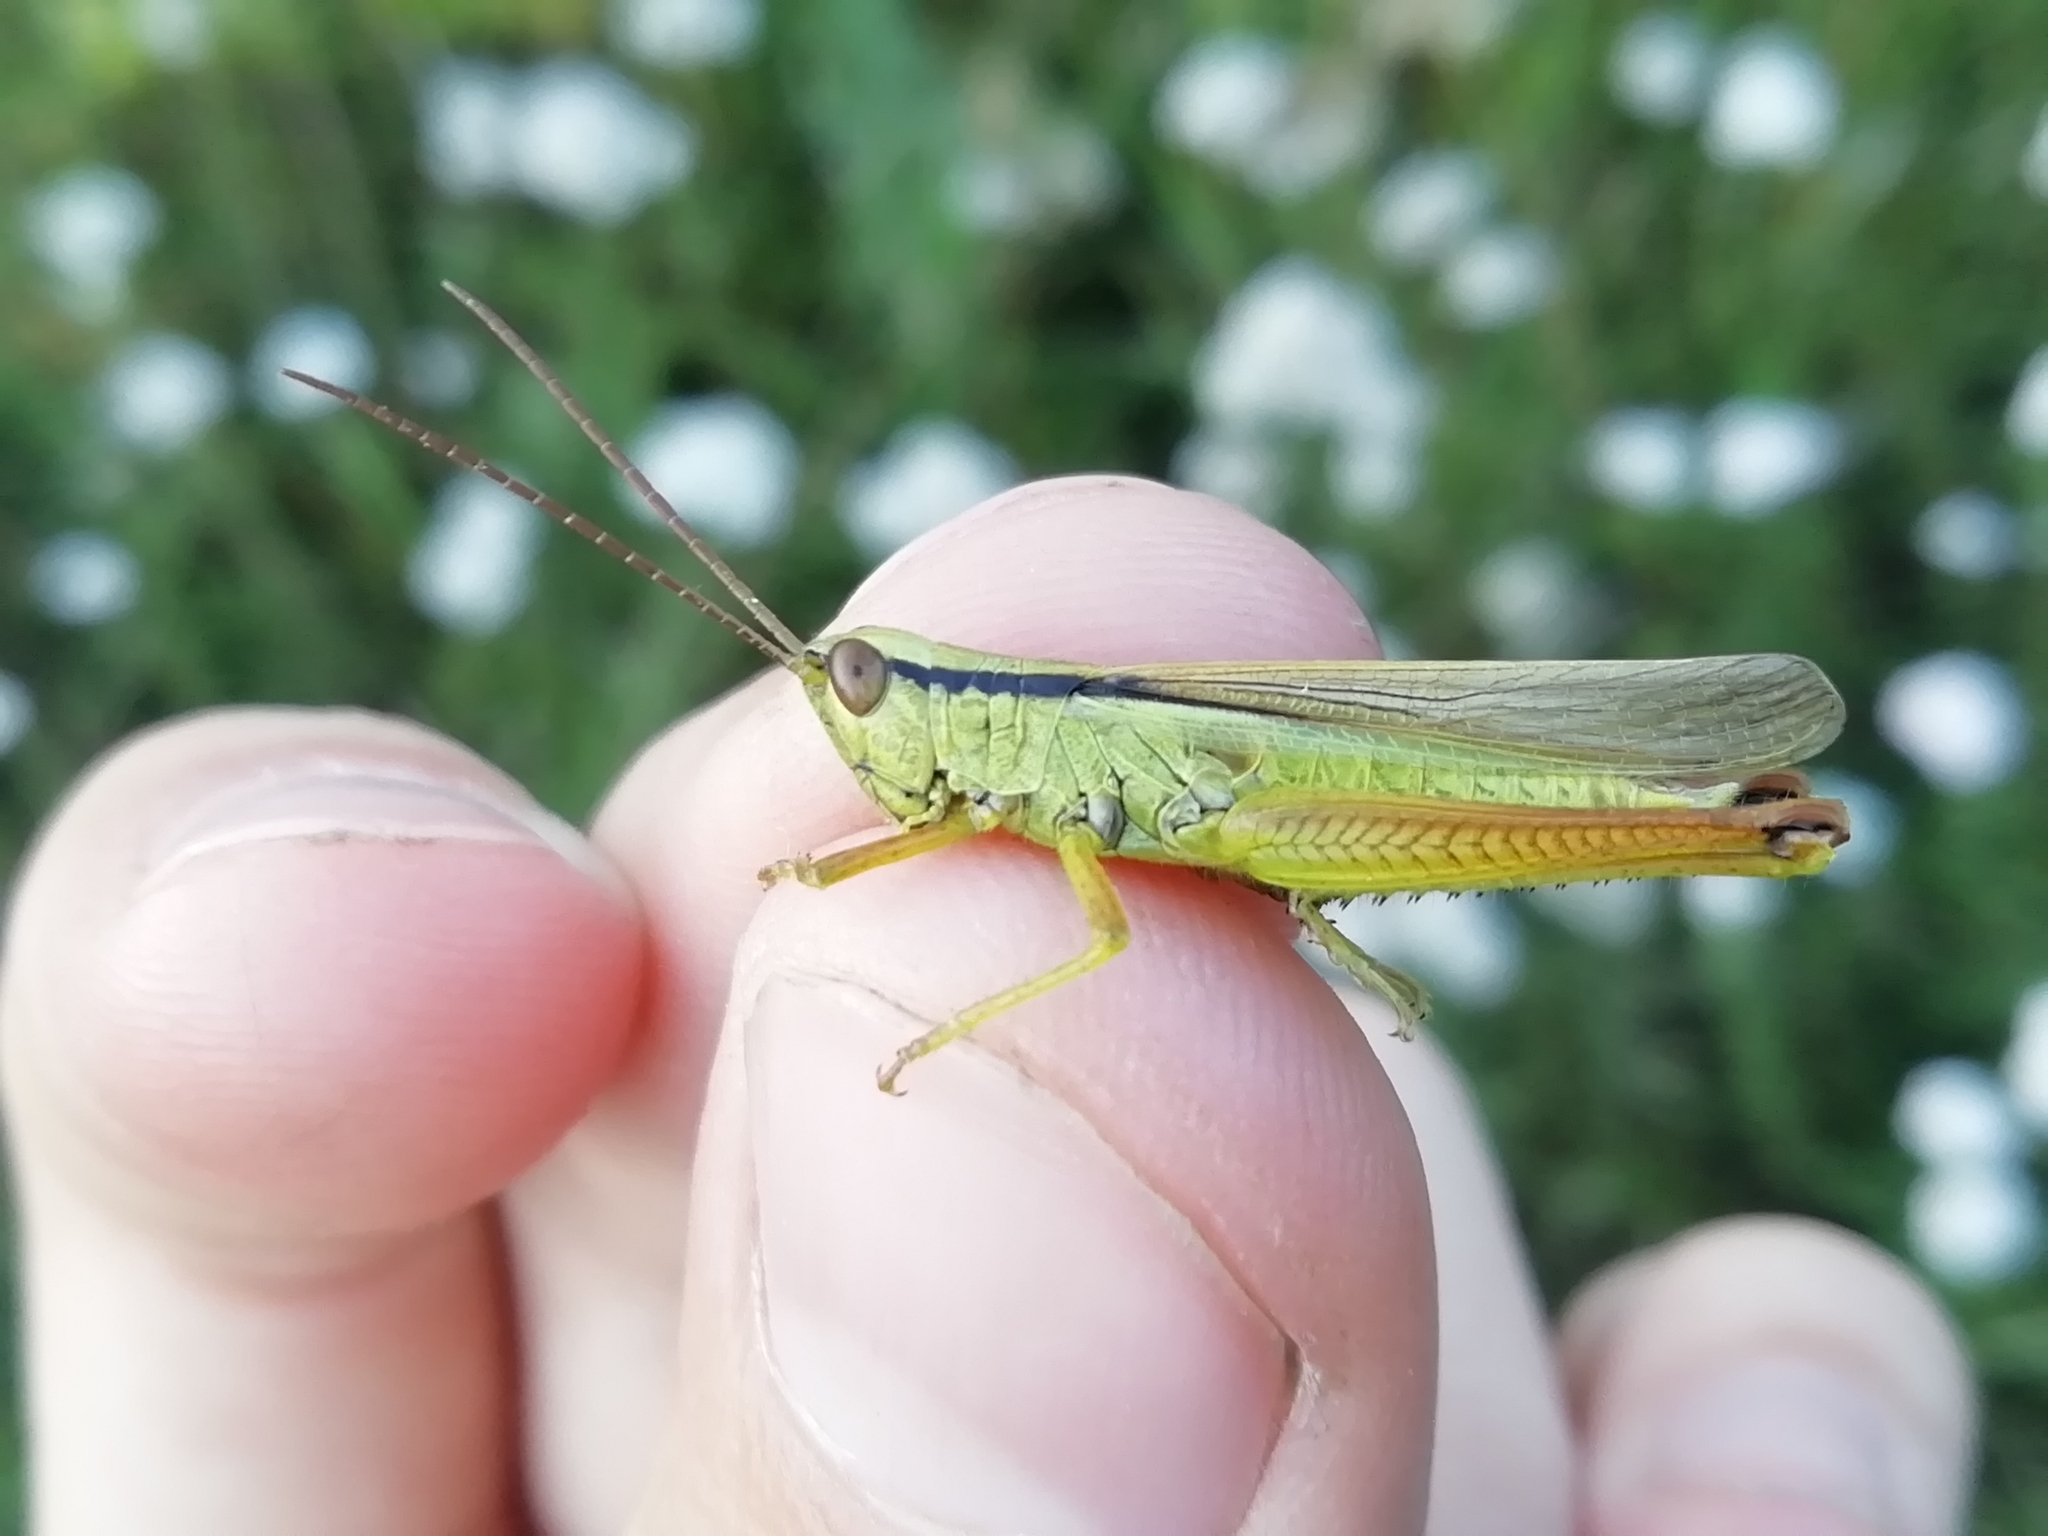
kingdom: Animalia
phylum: Arthropoda
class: Insecta
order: Orthoptera
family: Acrididae
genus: Mecostethus
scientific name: Mecostethus parapleurus
